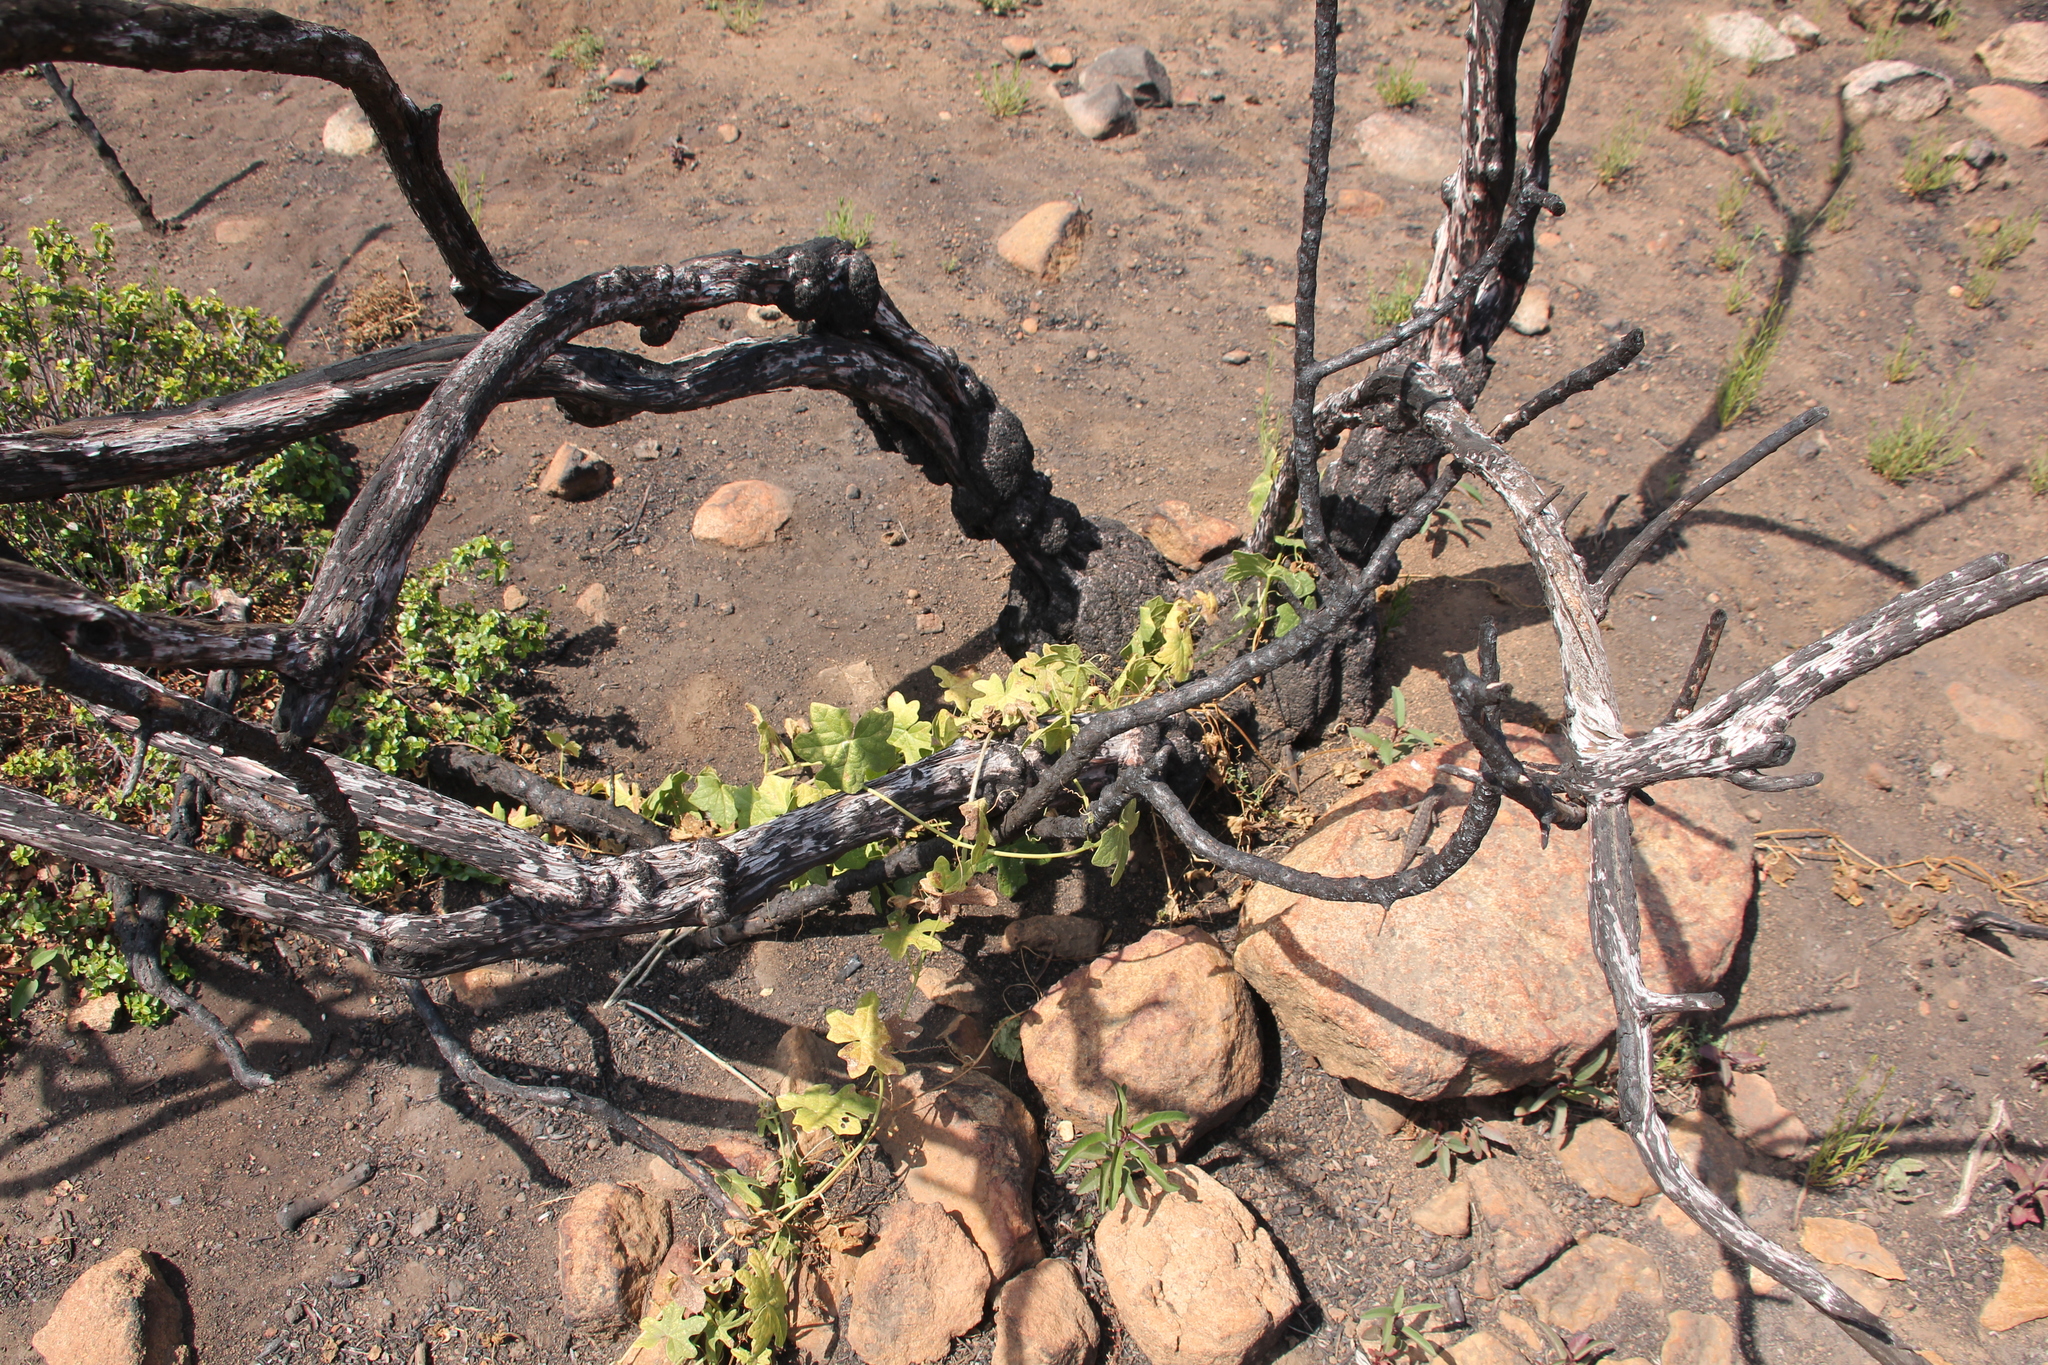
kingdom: Plantae
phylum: Tracheophyta
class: Magnoliopsida
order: Cucurbitales
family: Cucurbitaceae
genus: Marah
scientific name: Marah macrocarpa
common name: Cucamonga manroot
